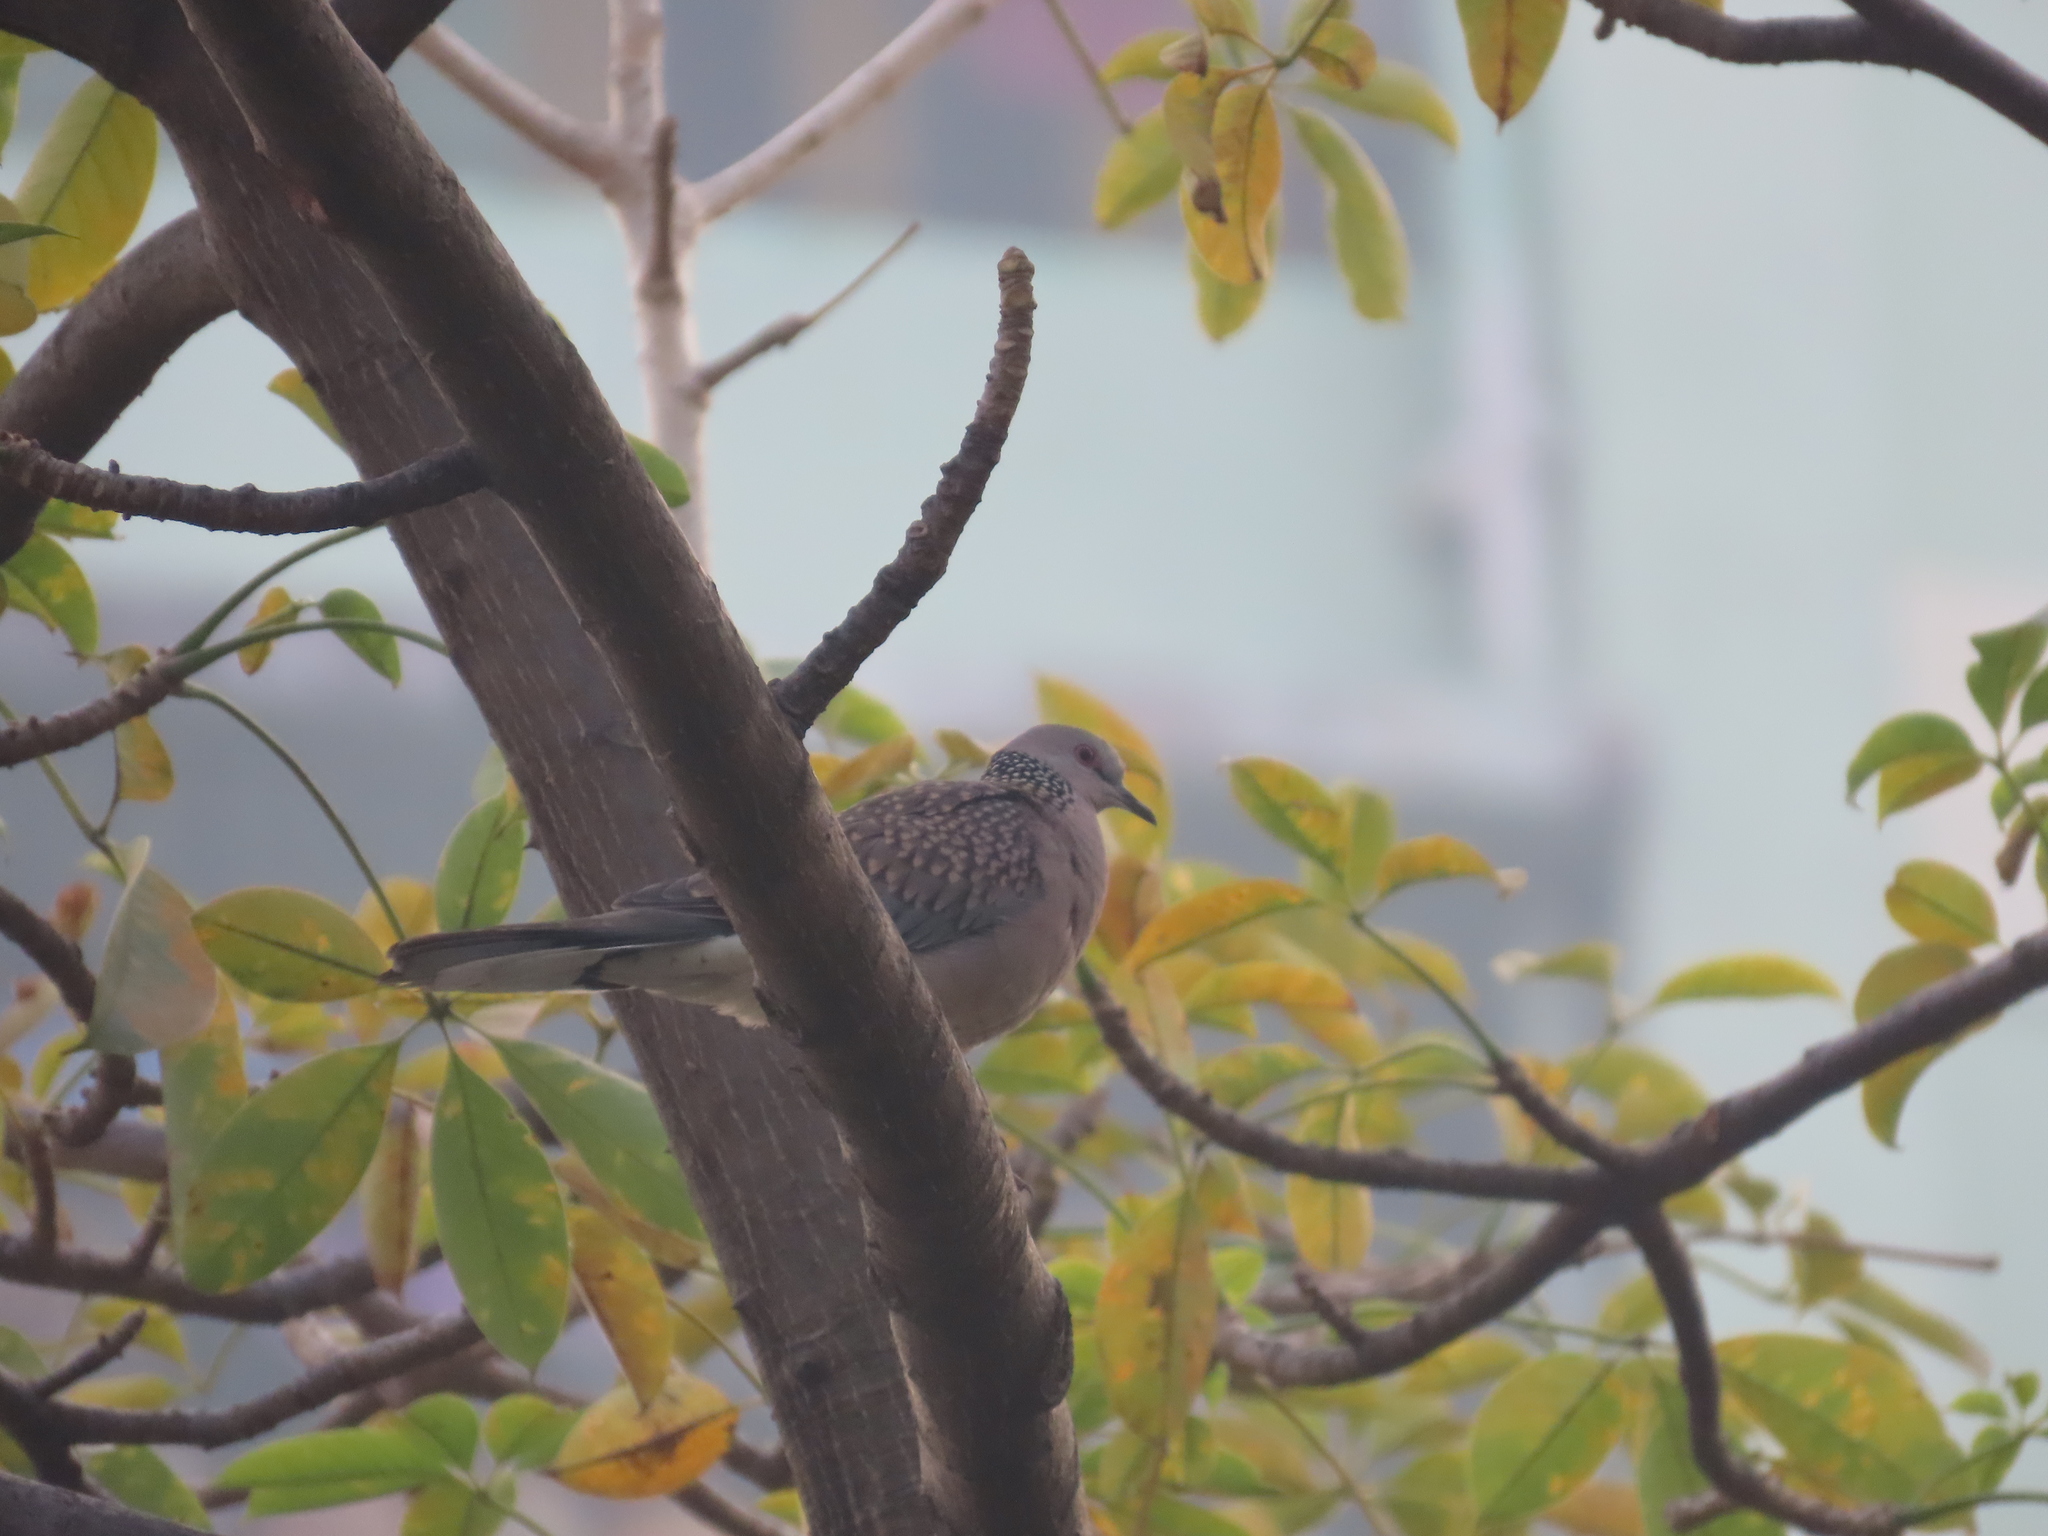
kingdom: Animalia
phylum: Chordata
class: Aves
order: Columbiformes
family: Columbidae
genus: Spilopelia
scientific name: Spilopelia chinensis
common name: Spotted dove
